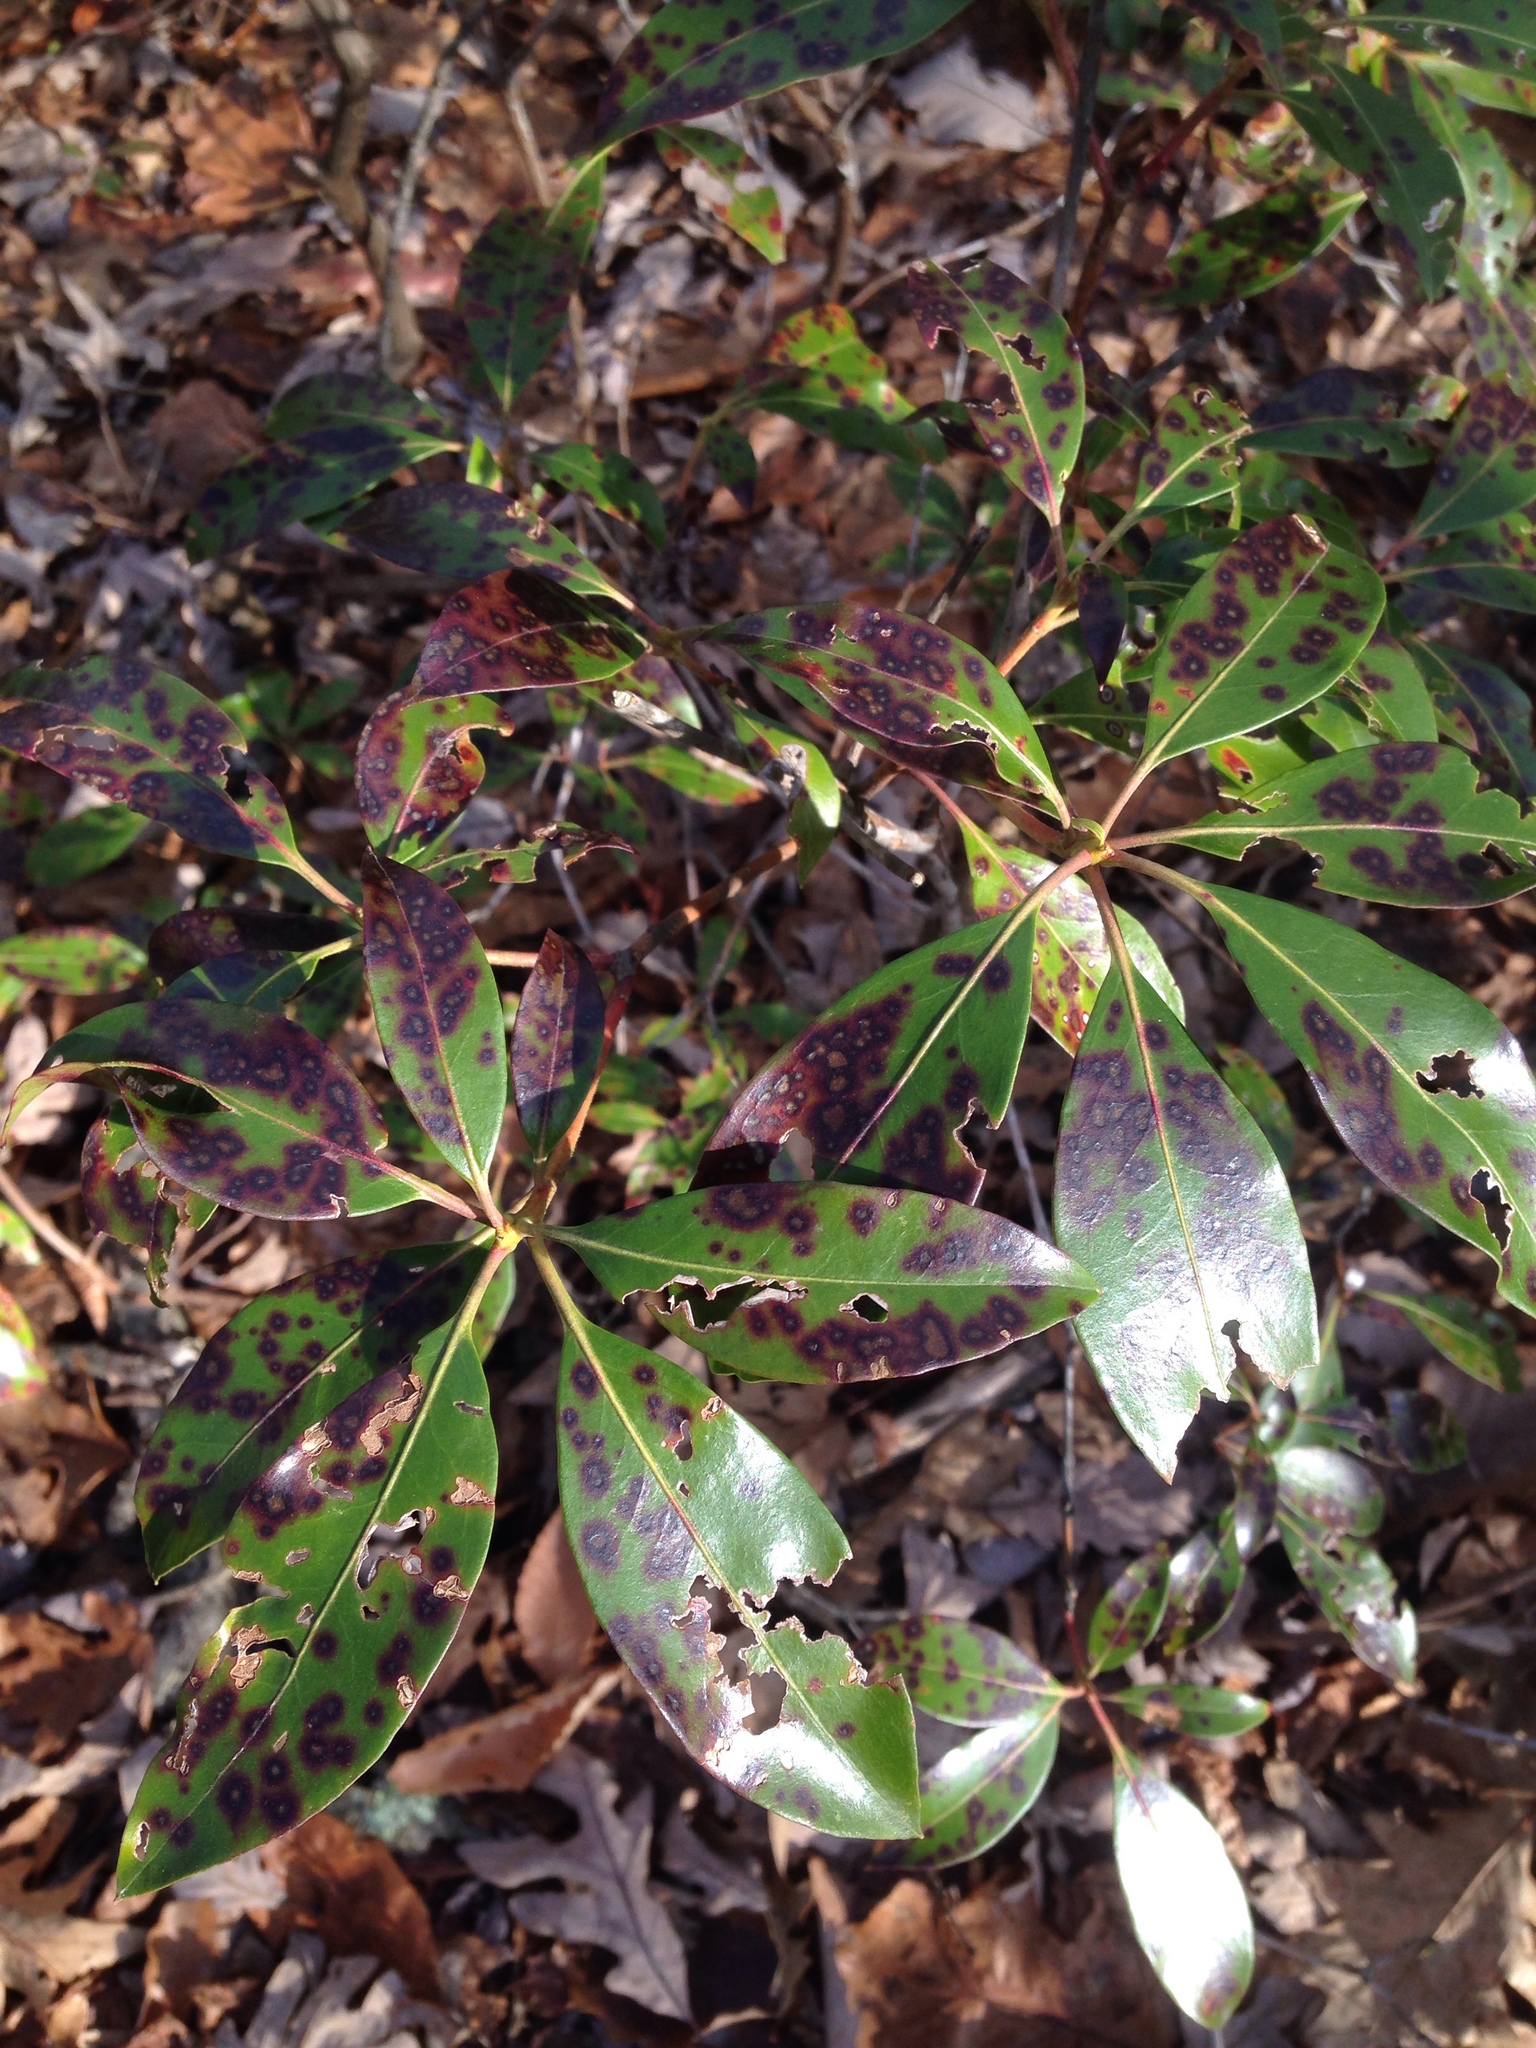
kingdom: Plantae
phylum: Tracheophyta
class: Magnoliopsida
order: Ericales
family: Ericaceae
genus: Kalmia
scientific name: Kalmia latifolia
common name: Mountain-laurel
